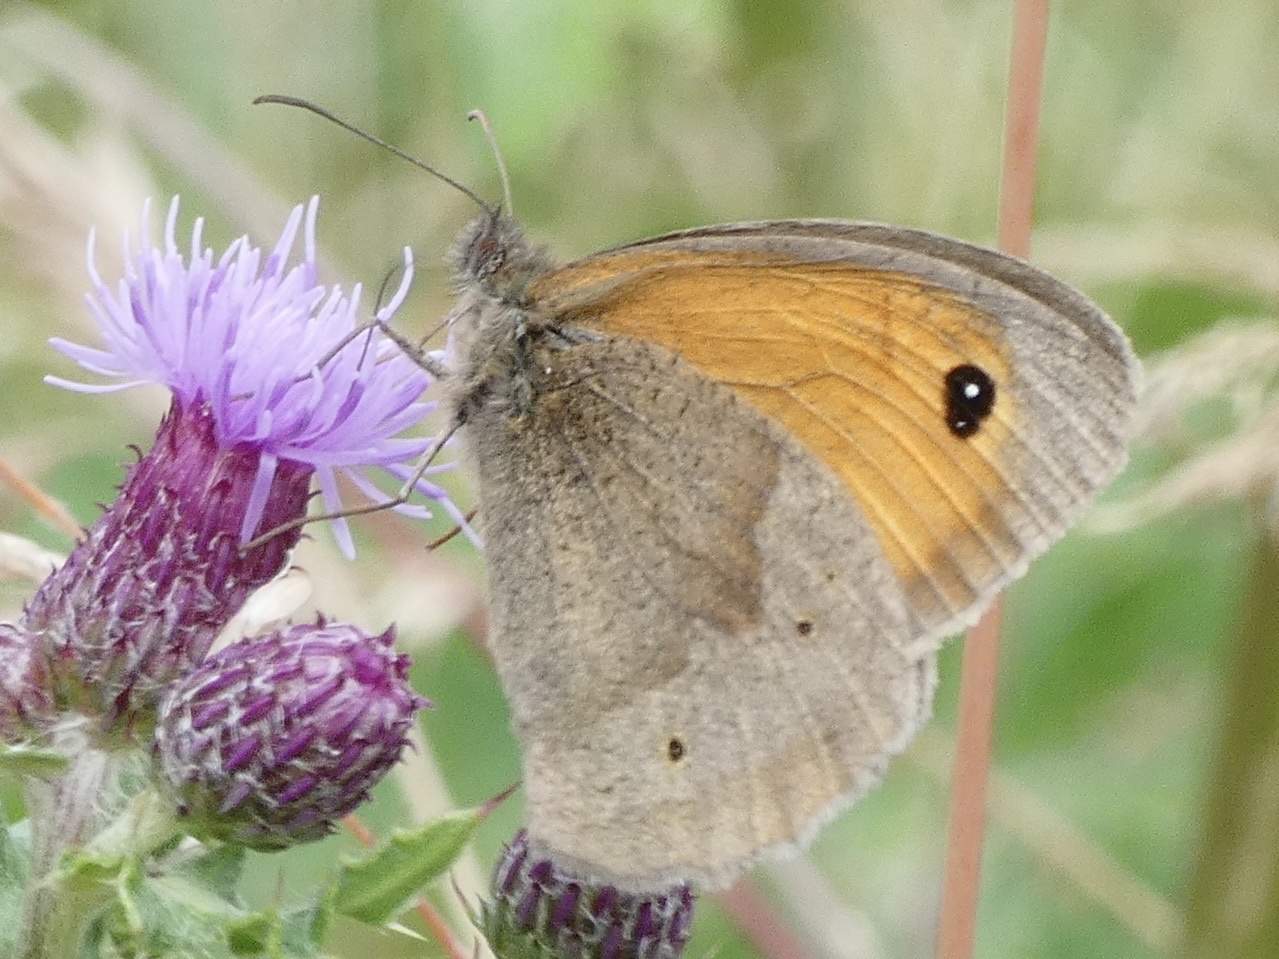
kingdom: Animalia
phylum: Arthropoda
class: Insecta
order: Lepidoptera
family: Nymphalidae
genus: Maniola
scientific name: Maniola jurtina
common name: Meadow brown
